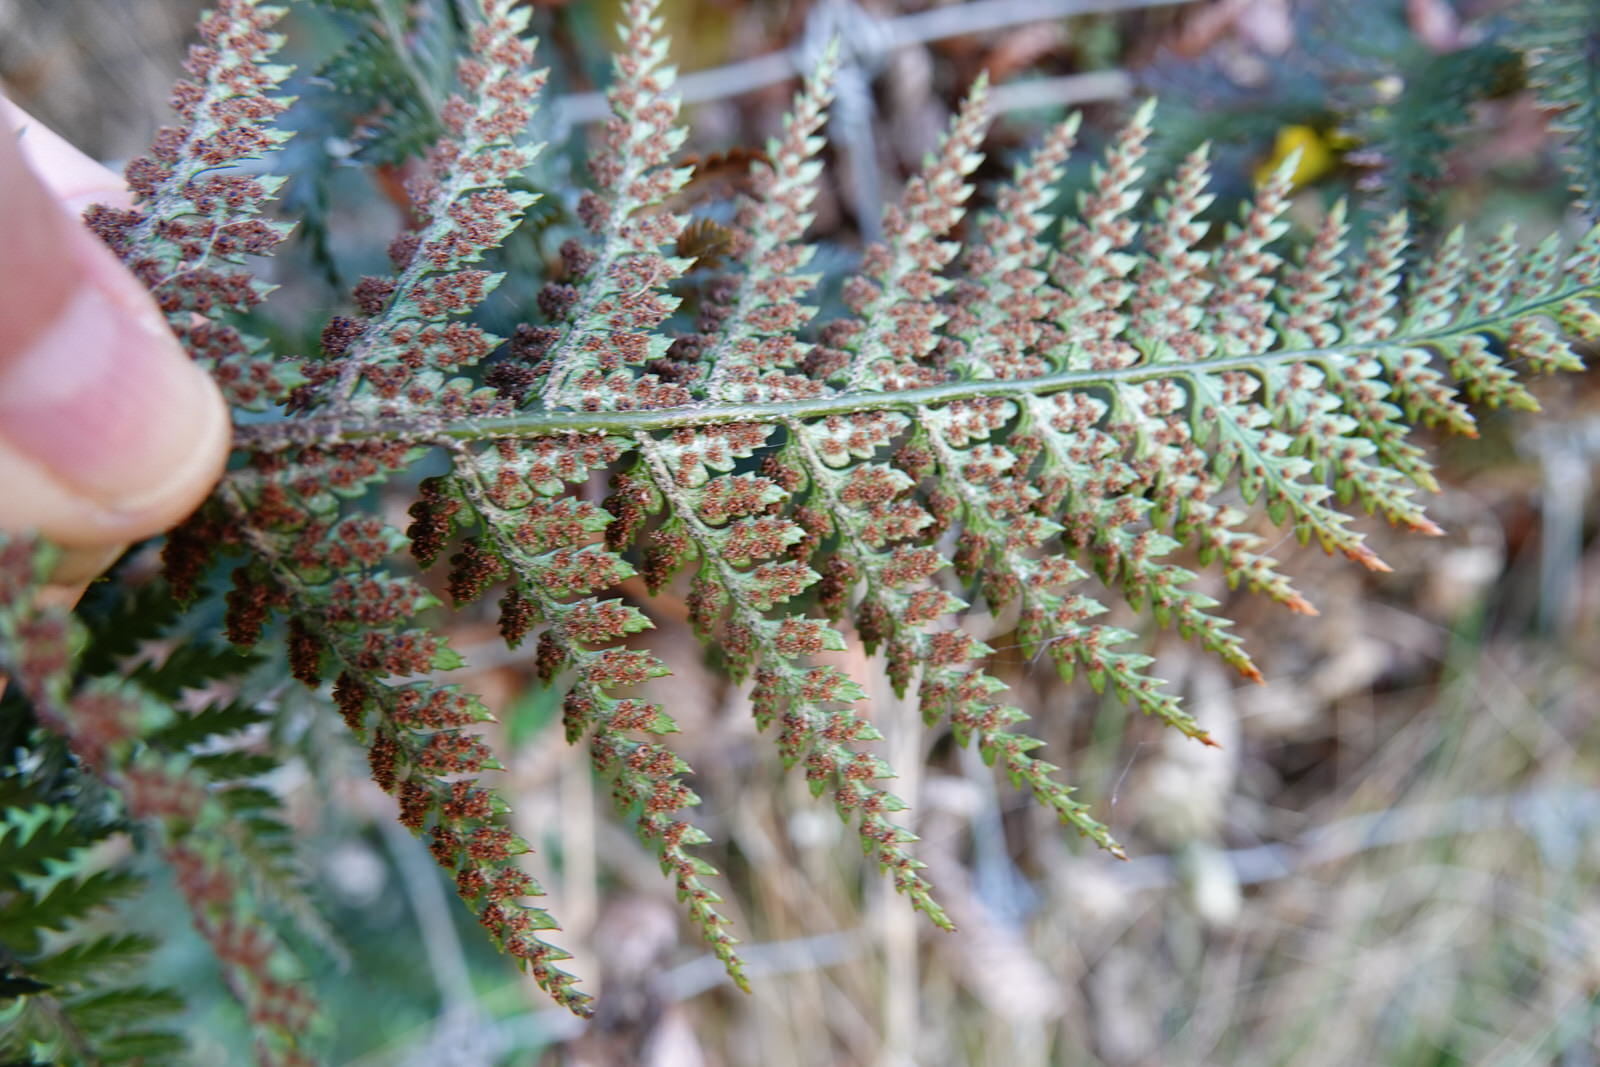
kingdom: Plantae
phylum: Tracheophyta
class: Polypodiopsida
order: Polypodiales
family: Dryopteridaceae
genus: Polystichum
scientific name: Polystichum neozelandicum
